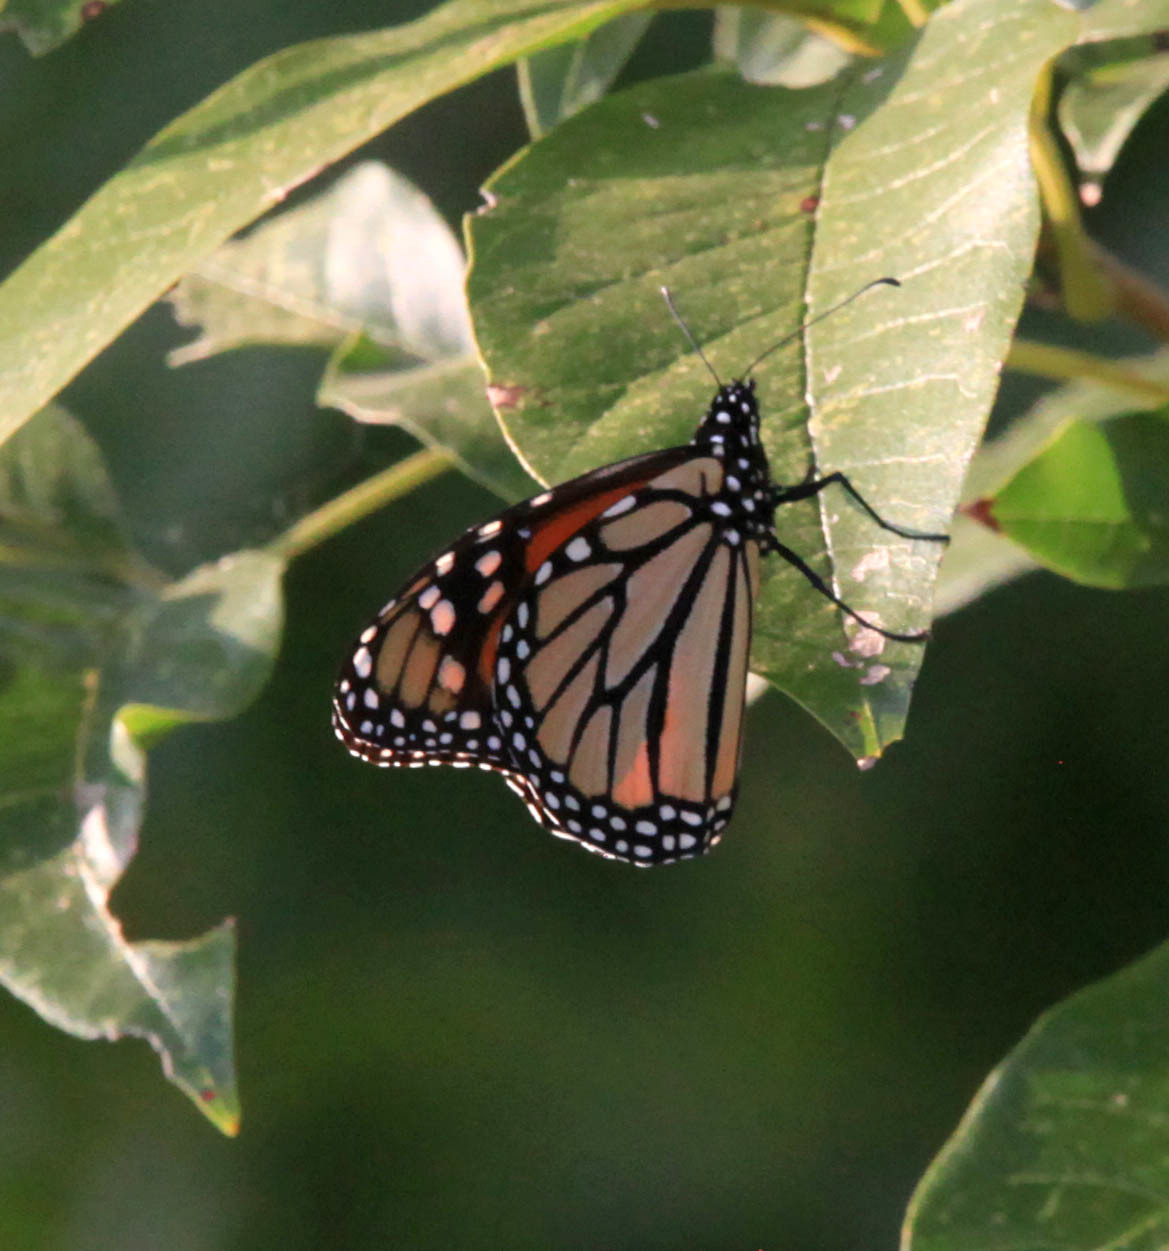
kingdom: Animalia
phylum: Arthropoda
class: Insecta
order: Lepidoptera
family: Nymphalidae
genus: Danaus
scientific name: Danaus plexippus
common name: Monarch
